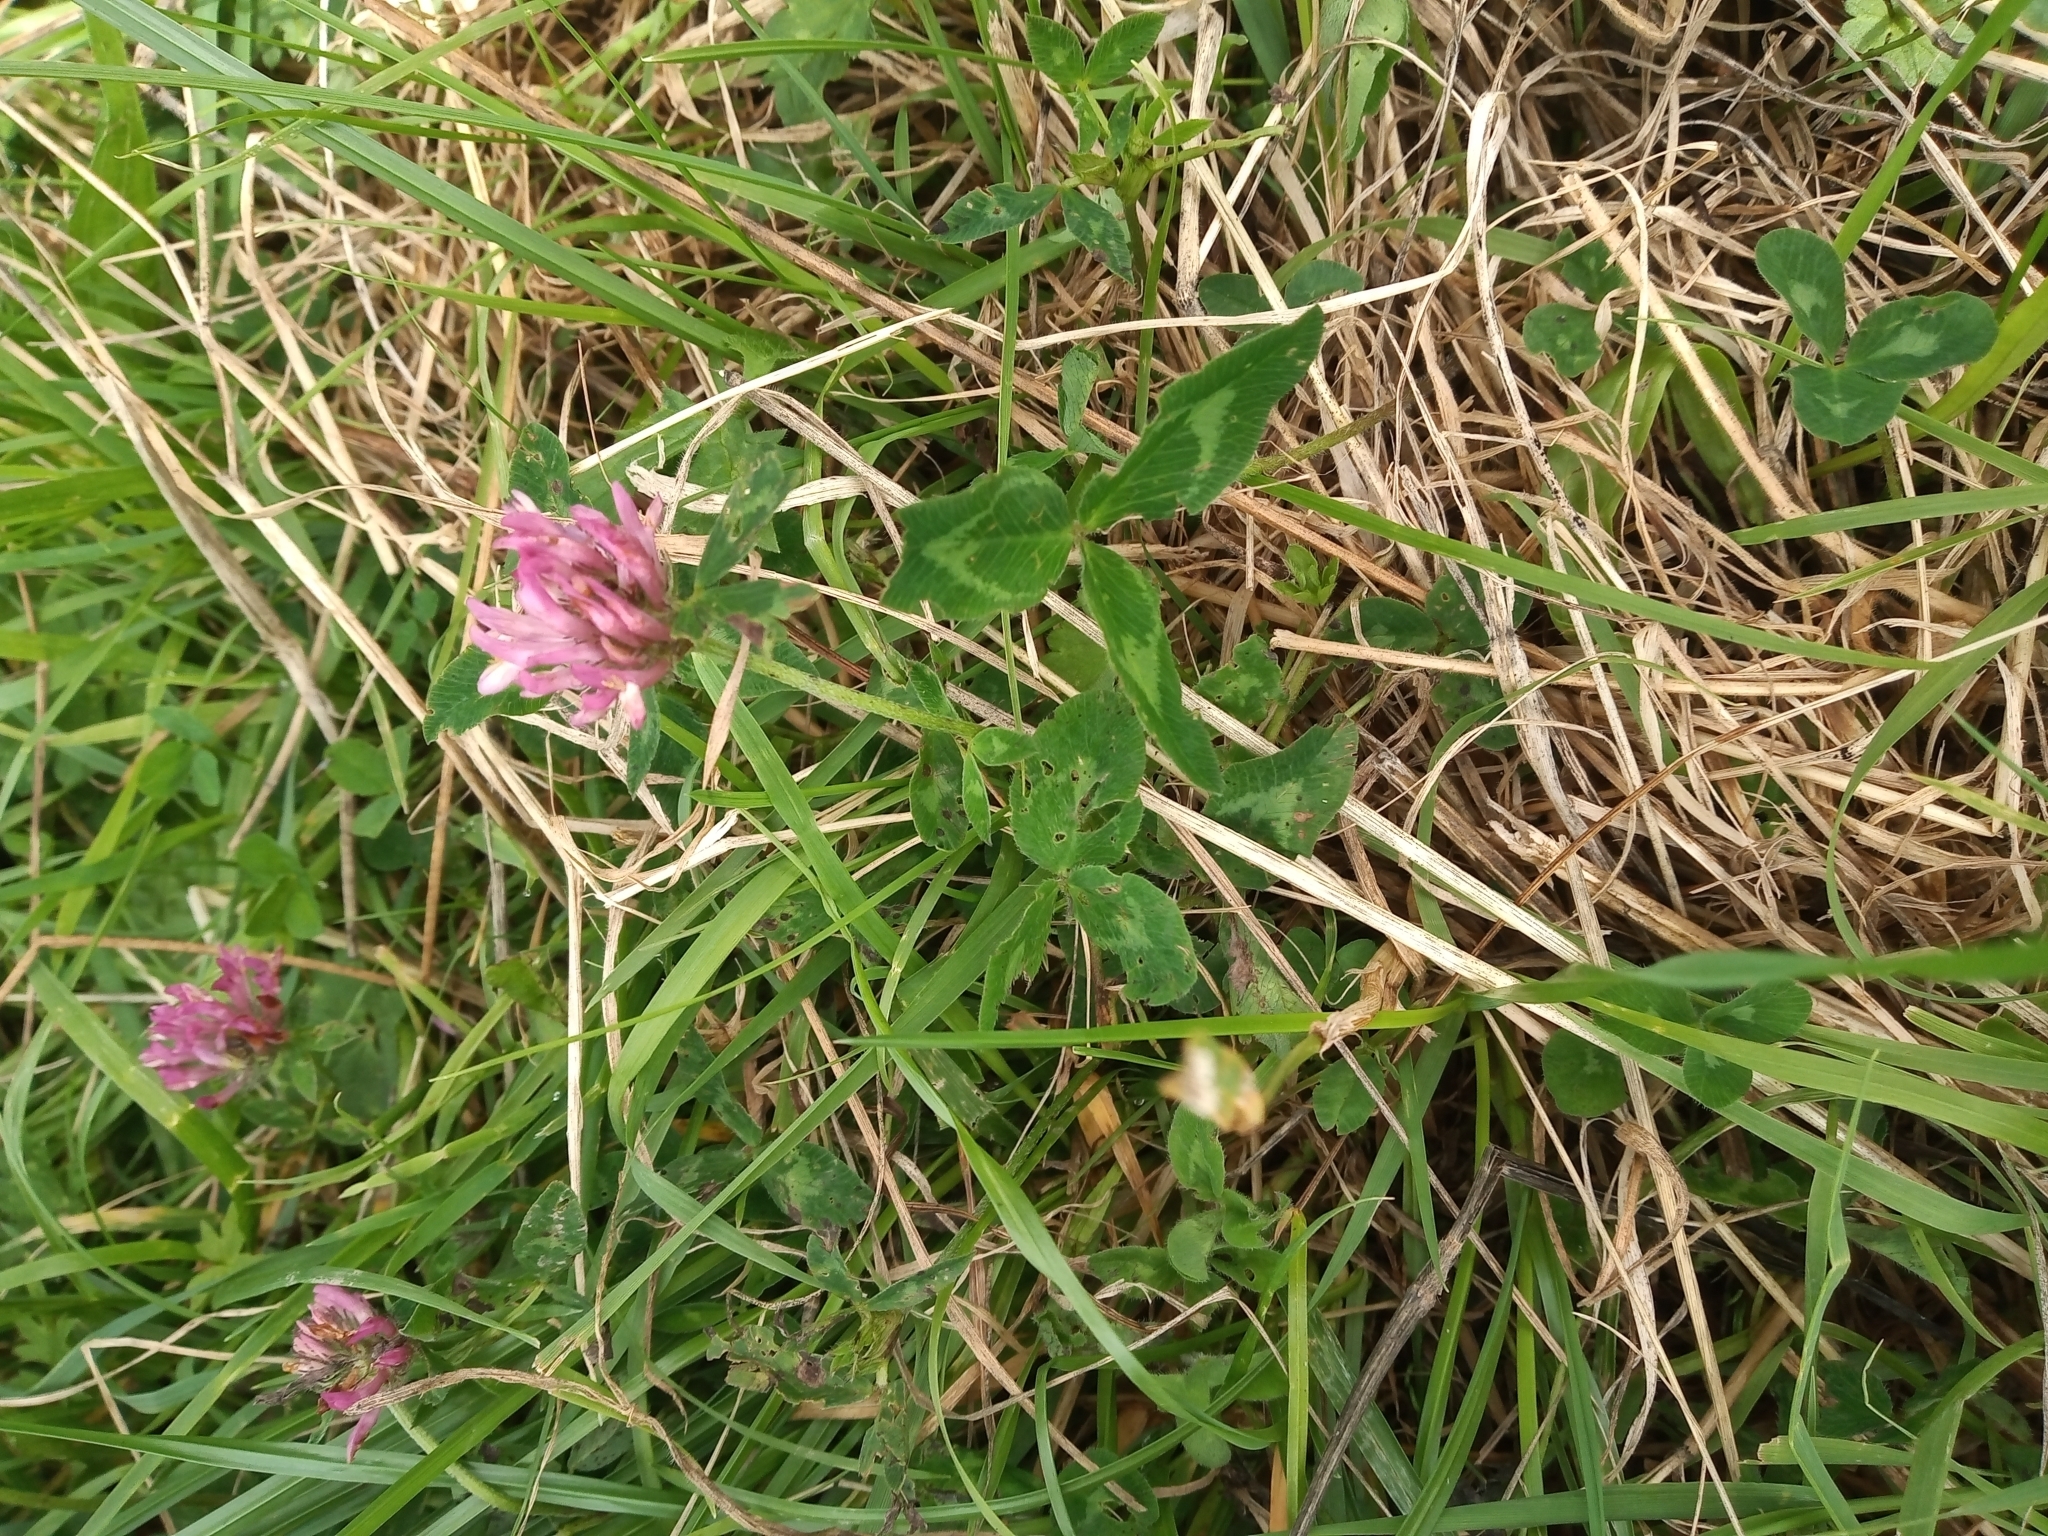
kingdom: Plantae
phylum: Tracheophyta
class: Magnoliopsida
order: Fabales
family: Fabaceae
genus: Trifolium
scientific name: Trifolium pratense
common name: Red clover
